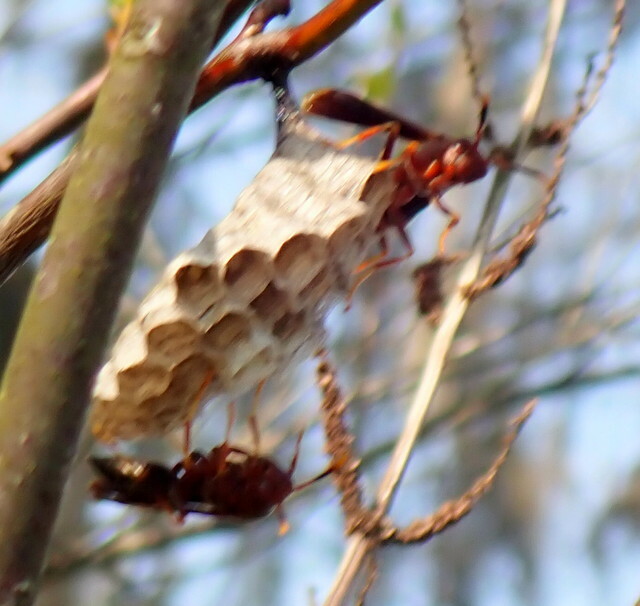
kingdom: Animalia
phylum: Arthropoda
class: Insecta
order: Hymenoptera
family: Eumenidae
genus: Polistes
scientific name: Polistes annularis
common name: Ringed paper wasp
